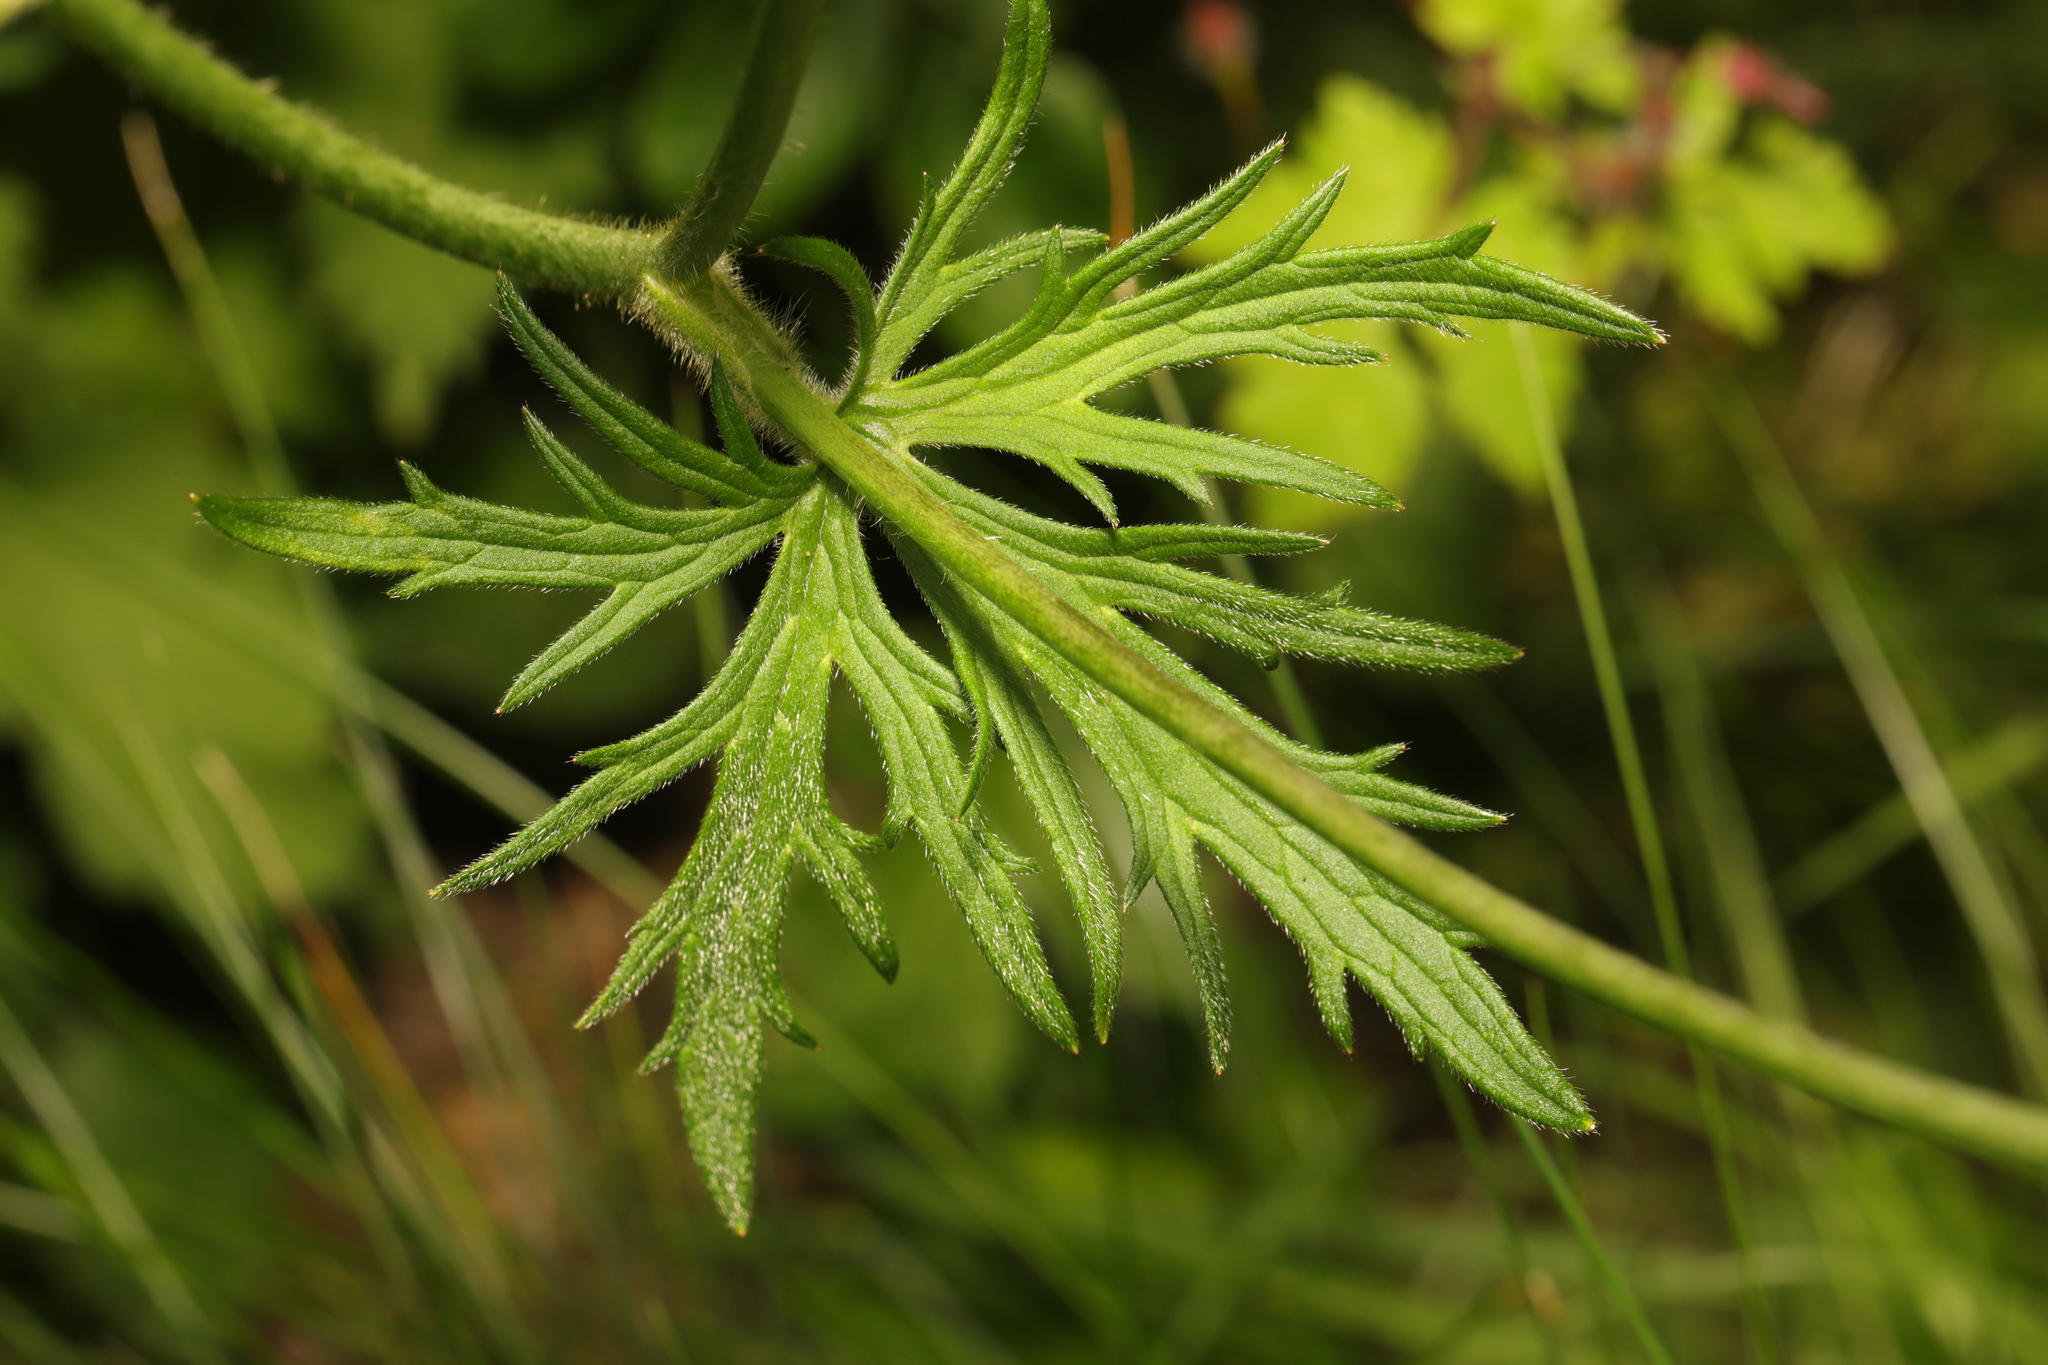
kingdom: Plantae
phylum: Tracheophyta
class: Magnoliopsida
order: Ranunculales
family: Ranunculaceae
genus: Ranunculus
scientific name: Ranunculus acris
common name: Meadow buttercup
